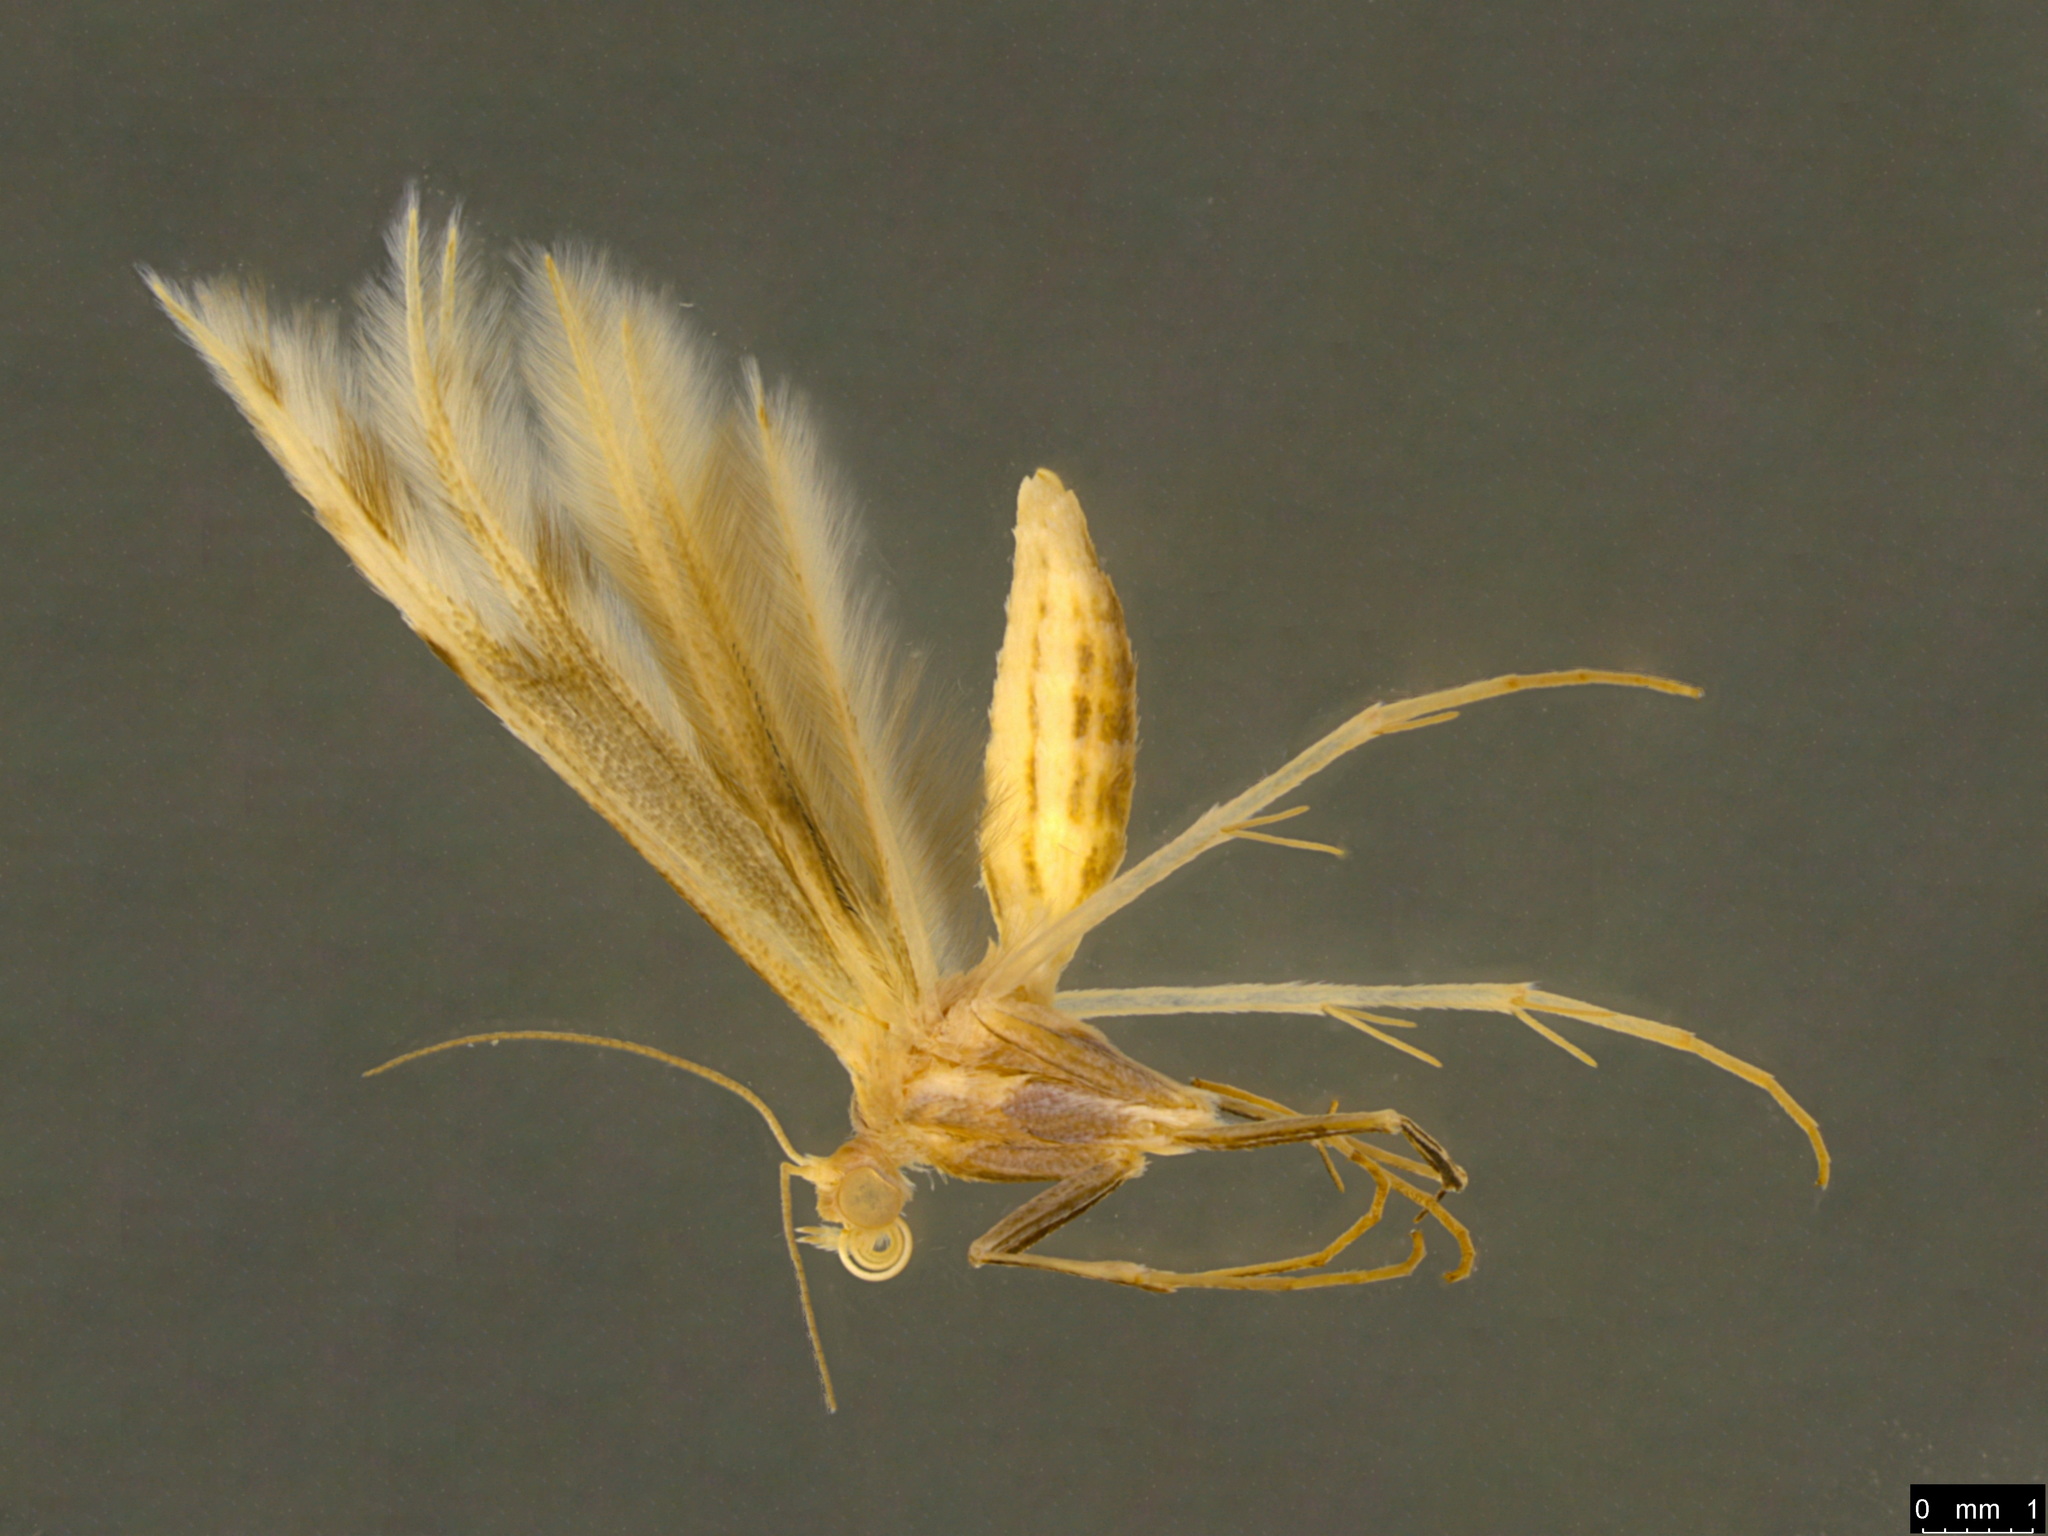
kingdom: Animalia
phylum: Arthropoda
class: Insecta
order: Lepidoptera
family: Pterophoridae
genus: Wheeleria
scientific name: Wheeleria spilodactylus
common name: Horehound plume
